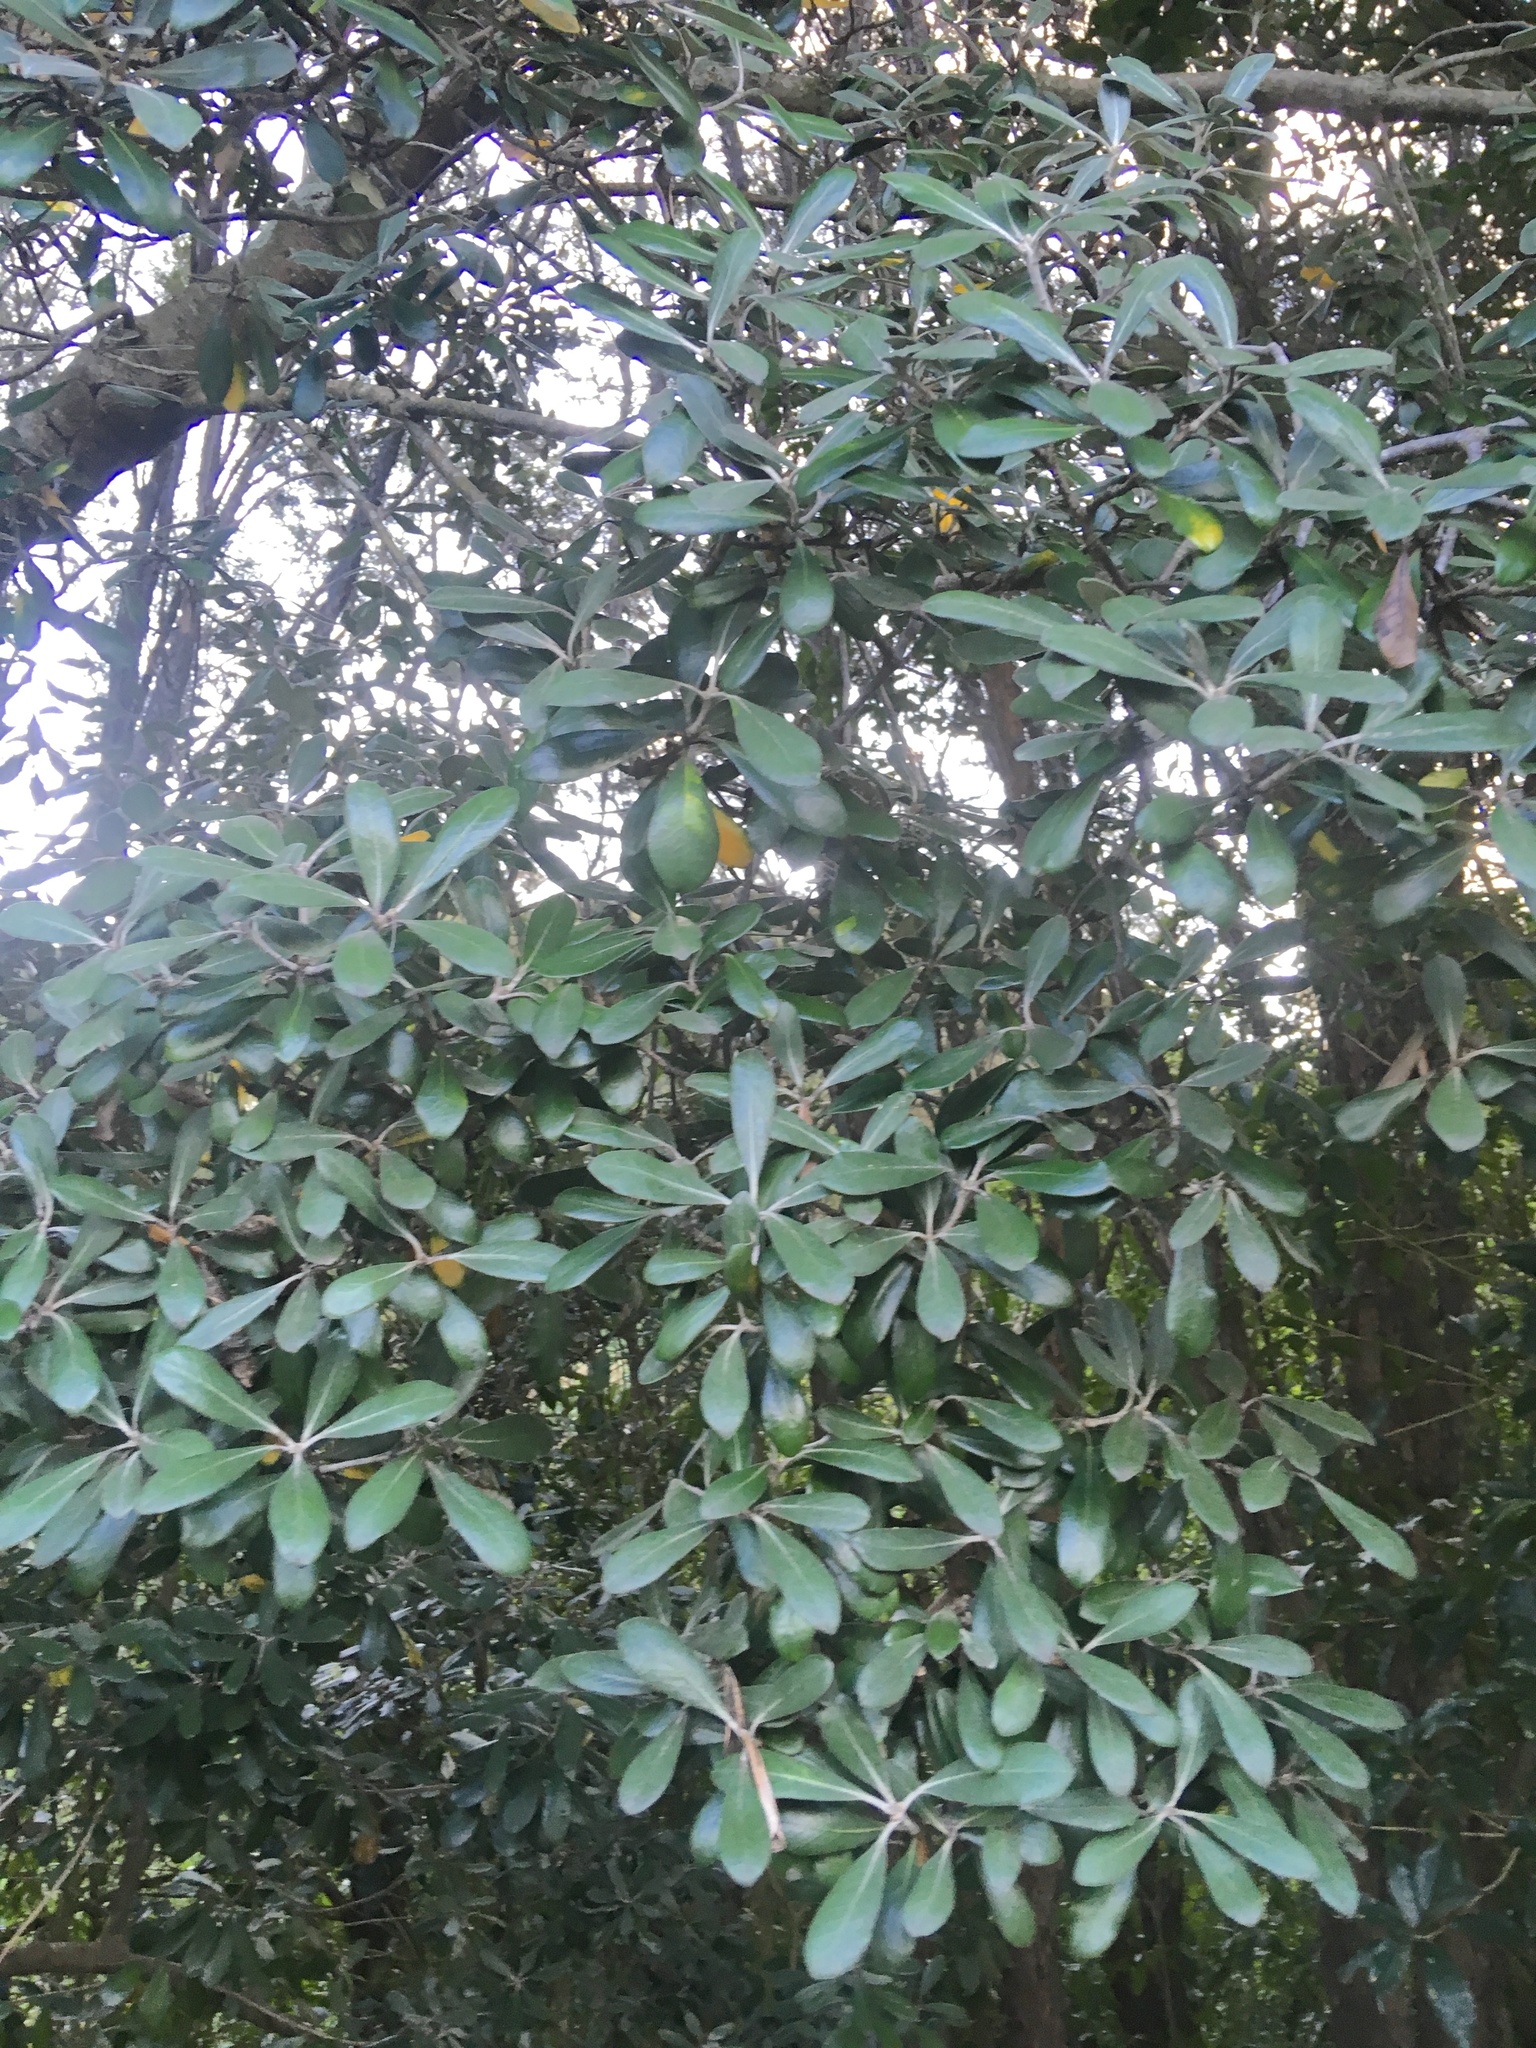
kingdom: Plantae
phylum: Tracheophyta
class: Magnoliopsida
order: Apiales
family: Pittosporaceae
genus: Pittosporum
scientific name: Pittosporum crassifolium
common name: Karo
